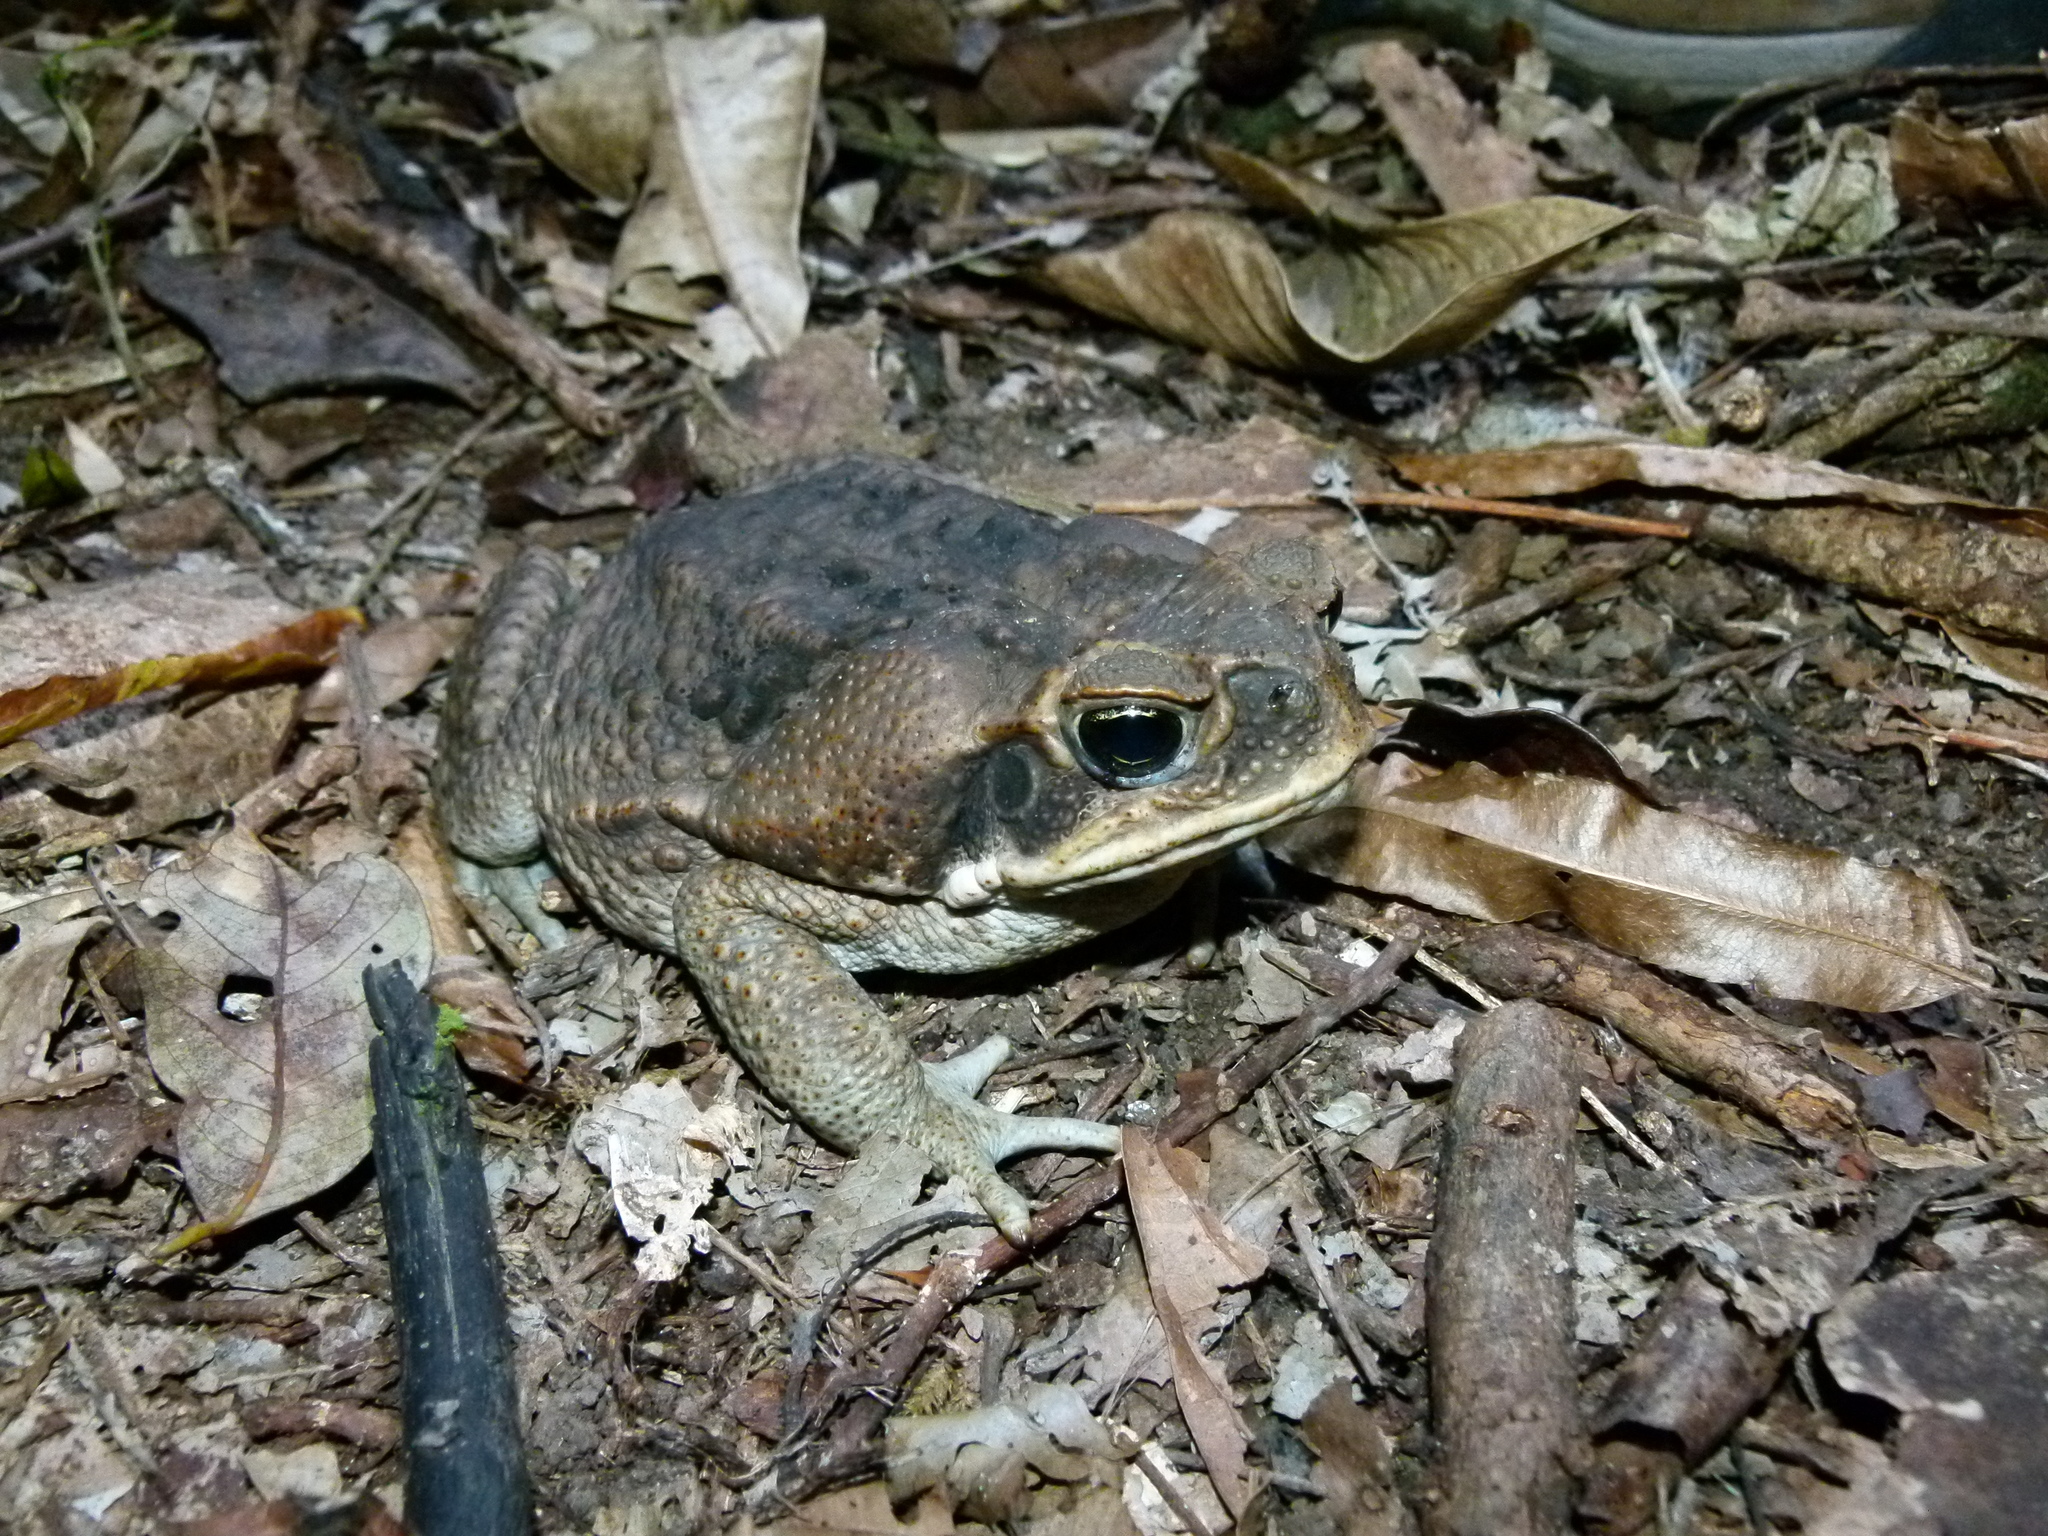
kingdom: Animalia
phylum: Chordata
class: Amphibia
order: Anura
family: Bufonidae
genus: Rhinella
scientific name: Rhinella marina
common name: Cane toad
